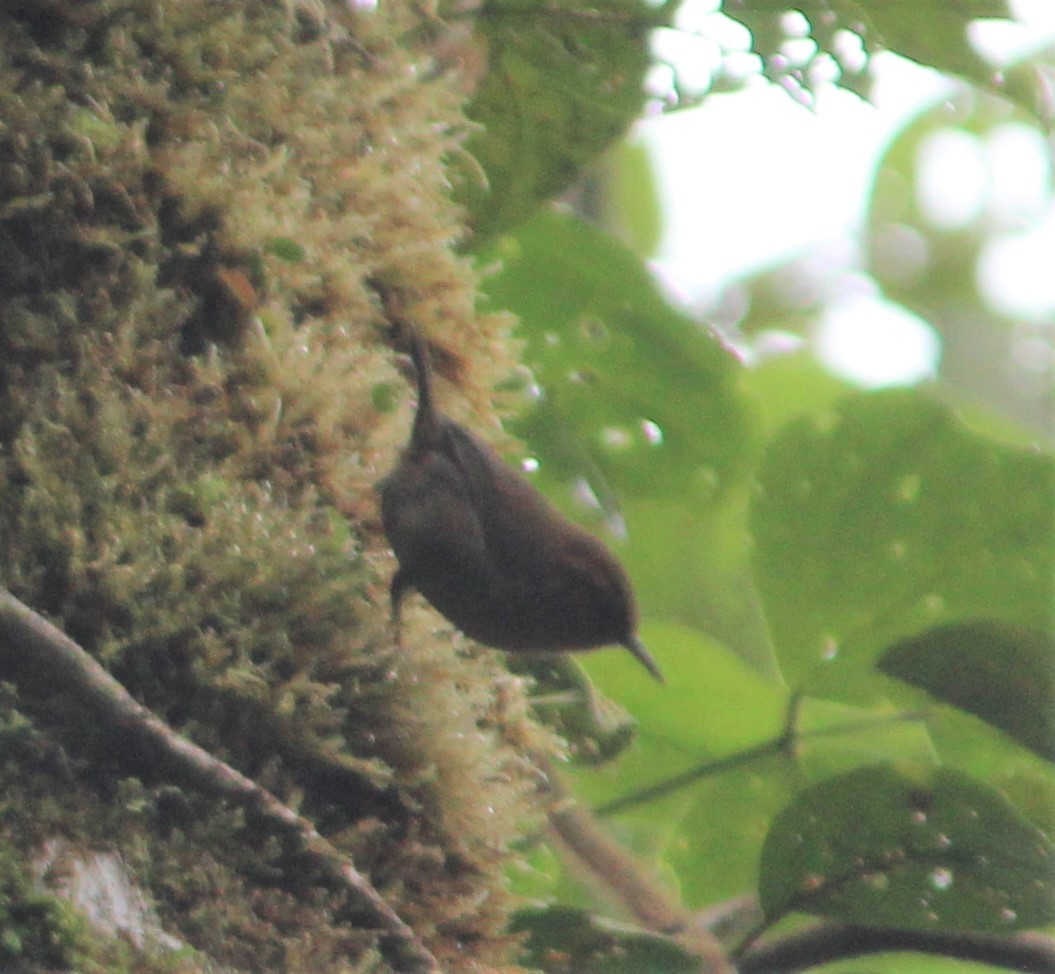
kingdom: Animalia
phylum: Chordata
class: Aves
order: Passeriformes
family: Troglodytidae
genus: Troglodytes
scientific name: Troglodytes ochraceus
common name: Ochraceous wren
